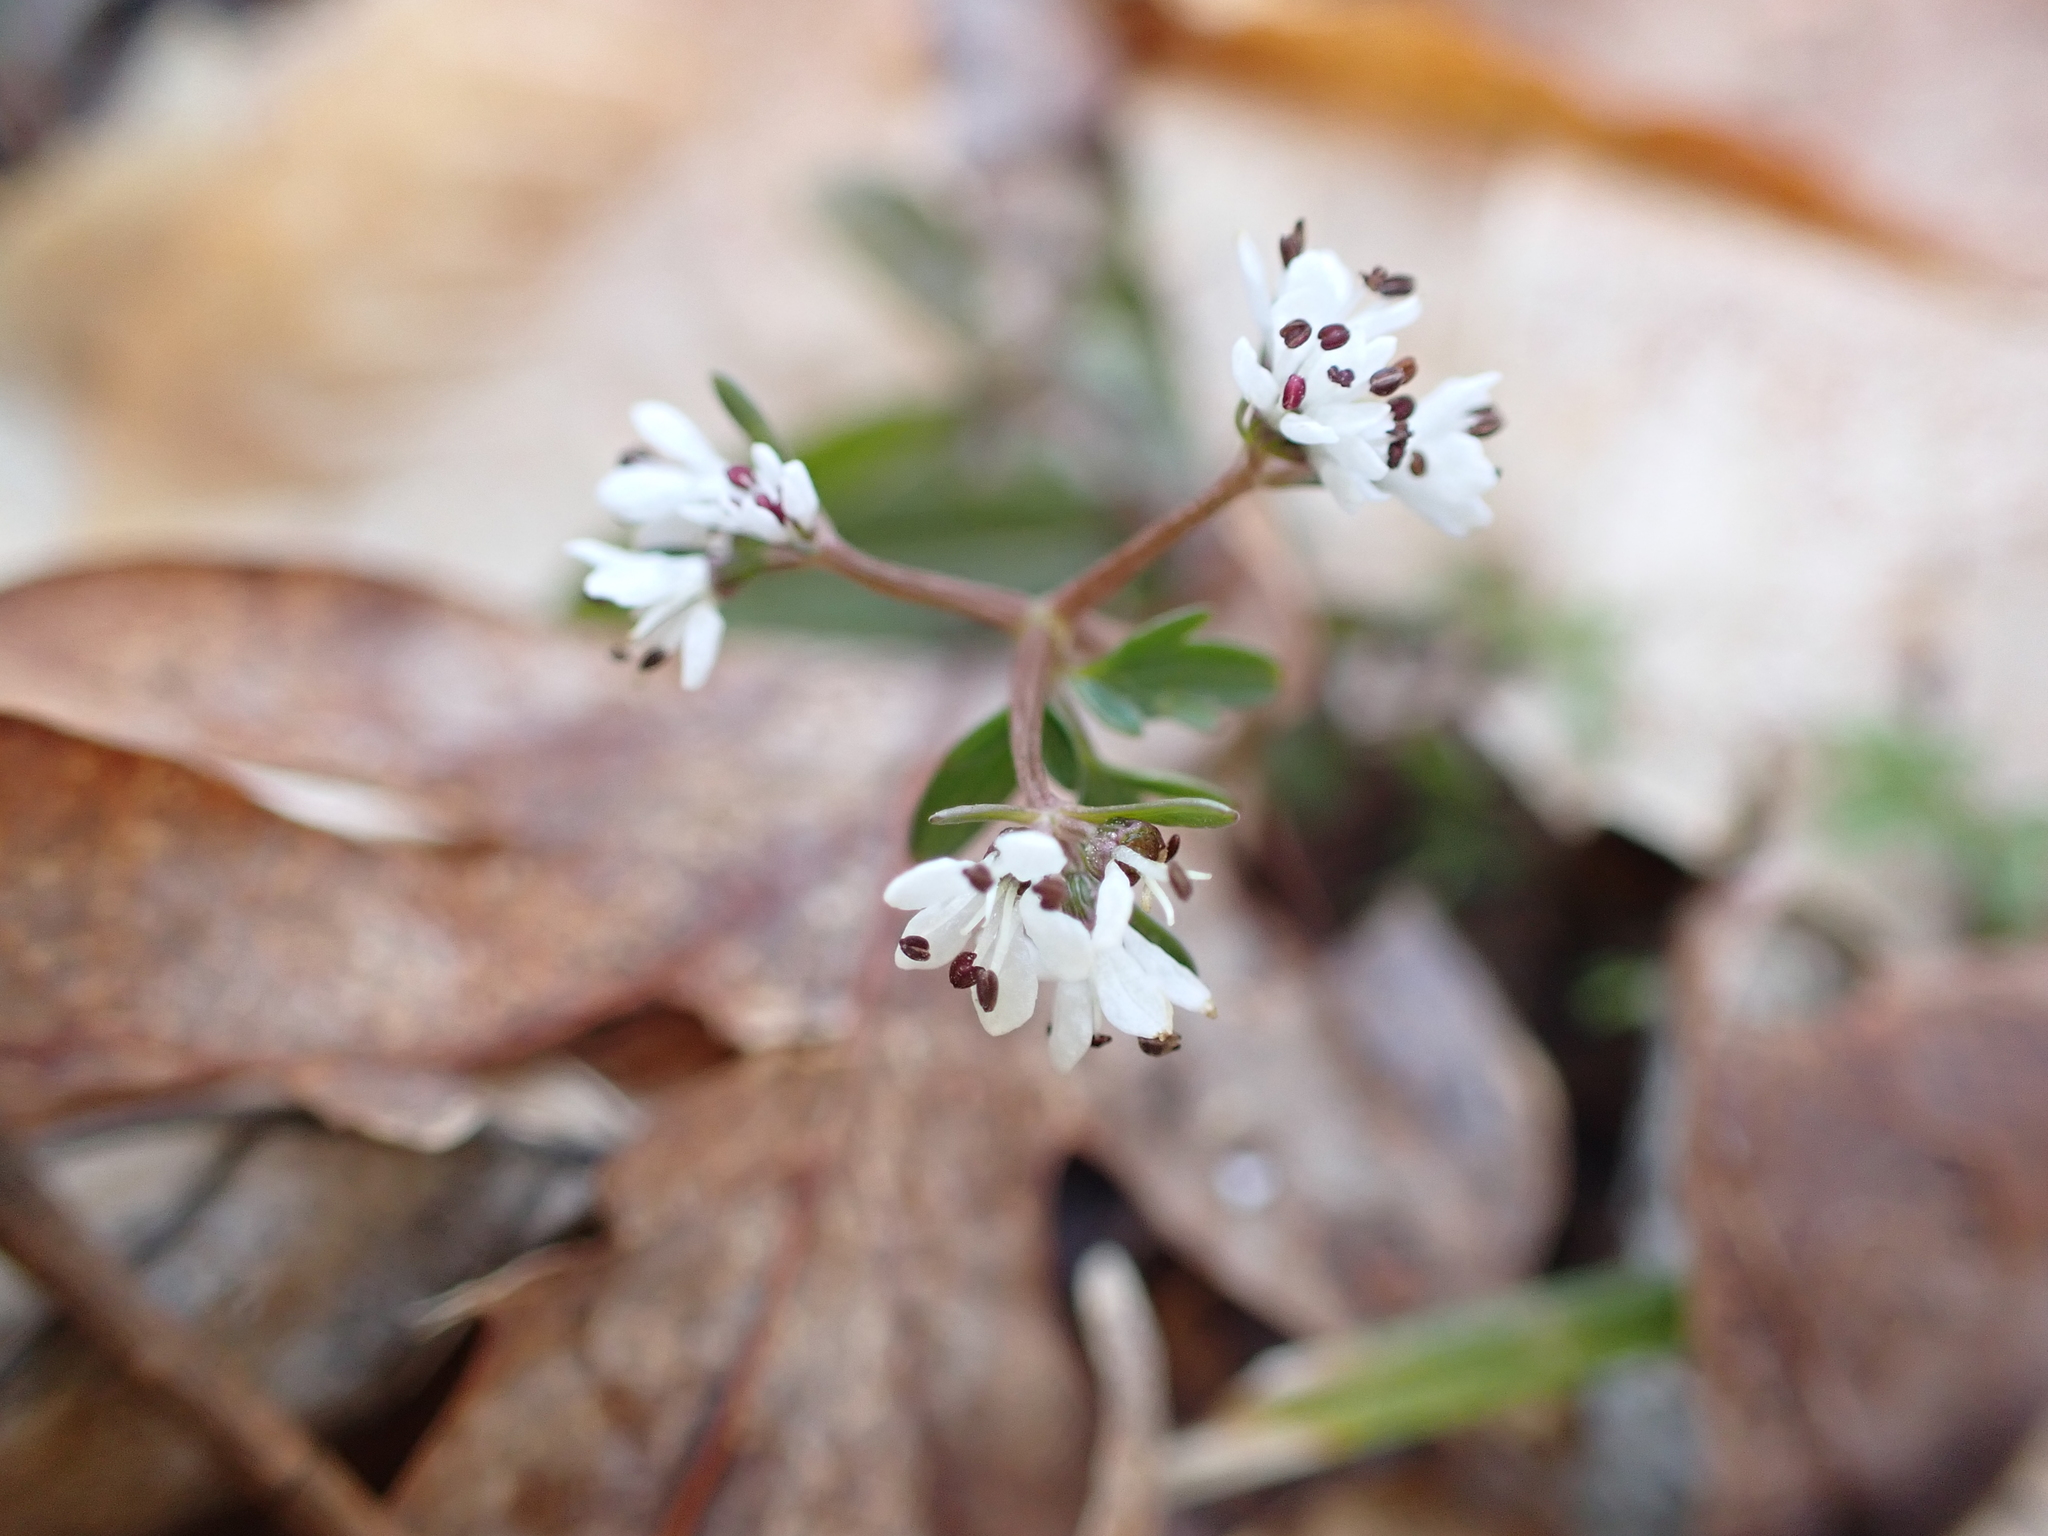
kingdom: Plantae
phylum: Tracheophyta
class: Magnoliopsida
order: Apiales
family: Apiaceae
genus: Erigenia
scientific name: Erigenia bulbosa
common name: Pepper-and-salt
